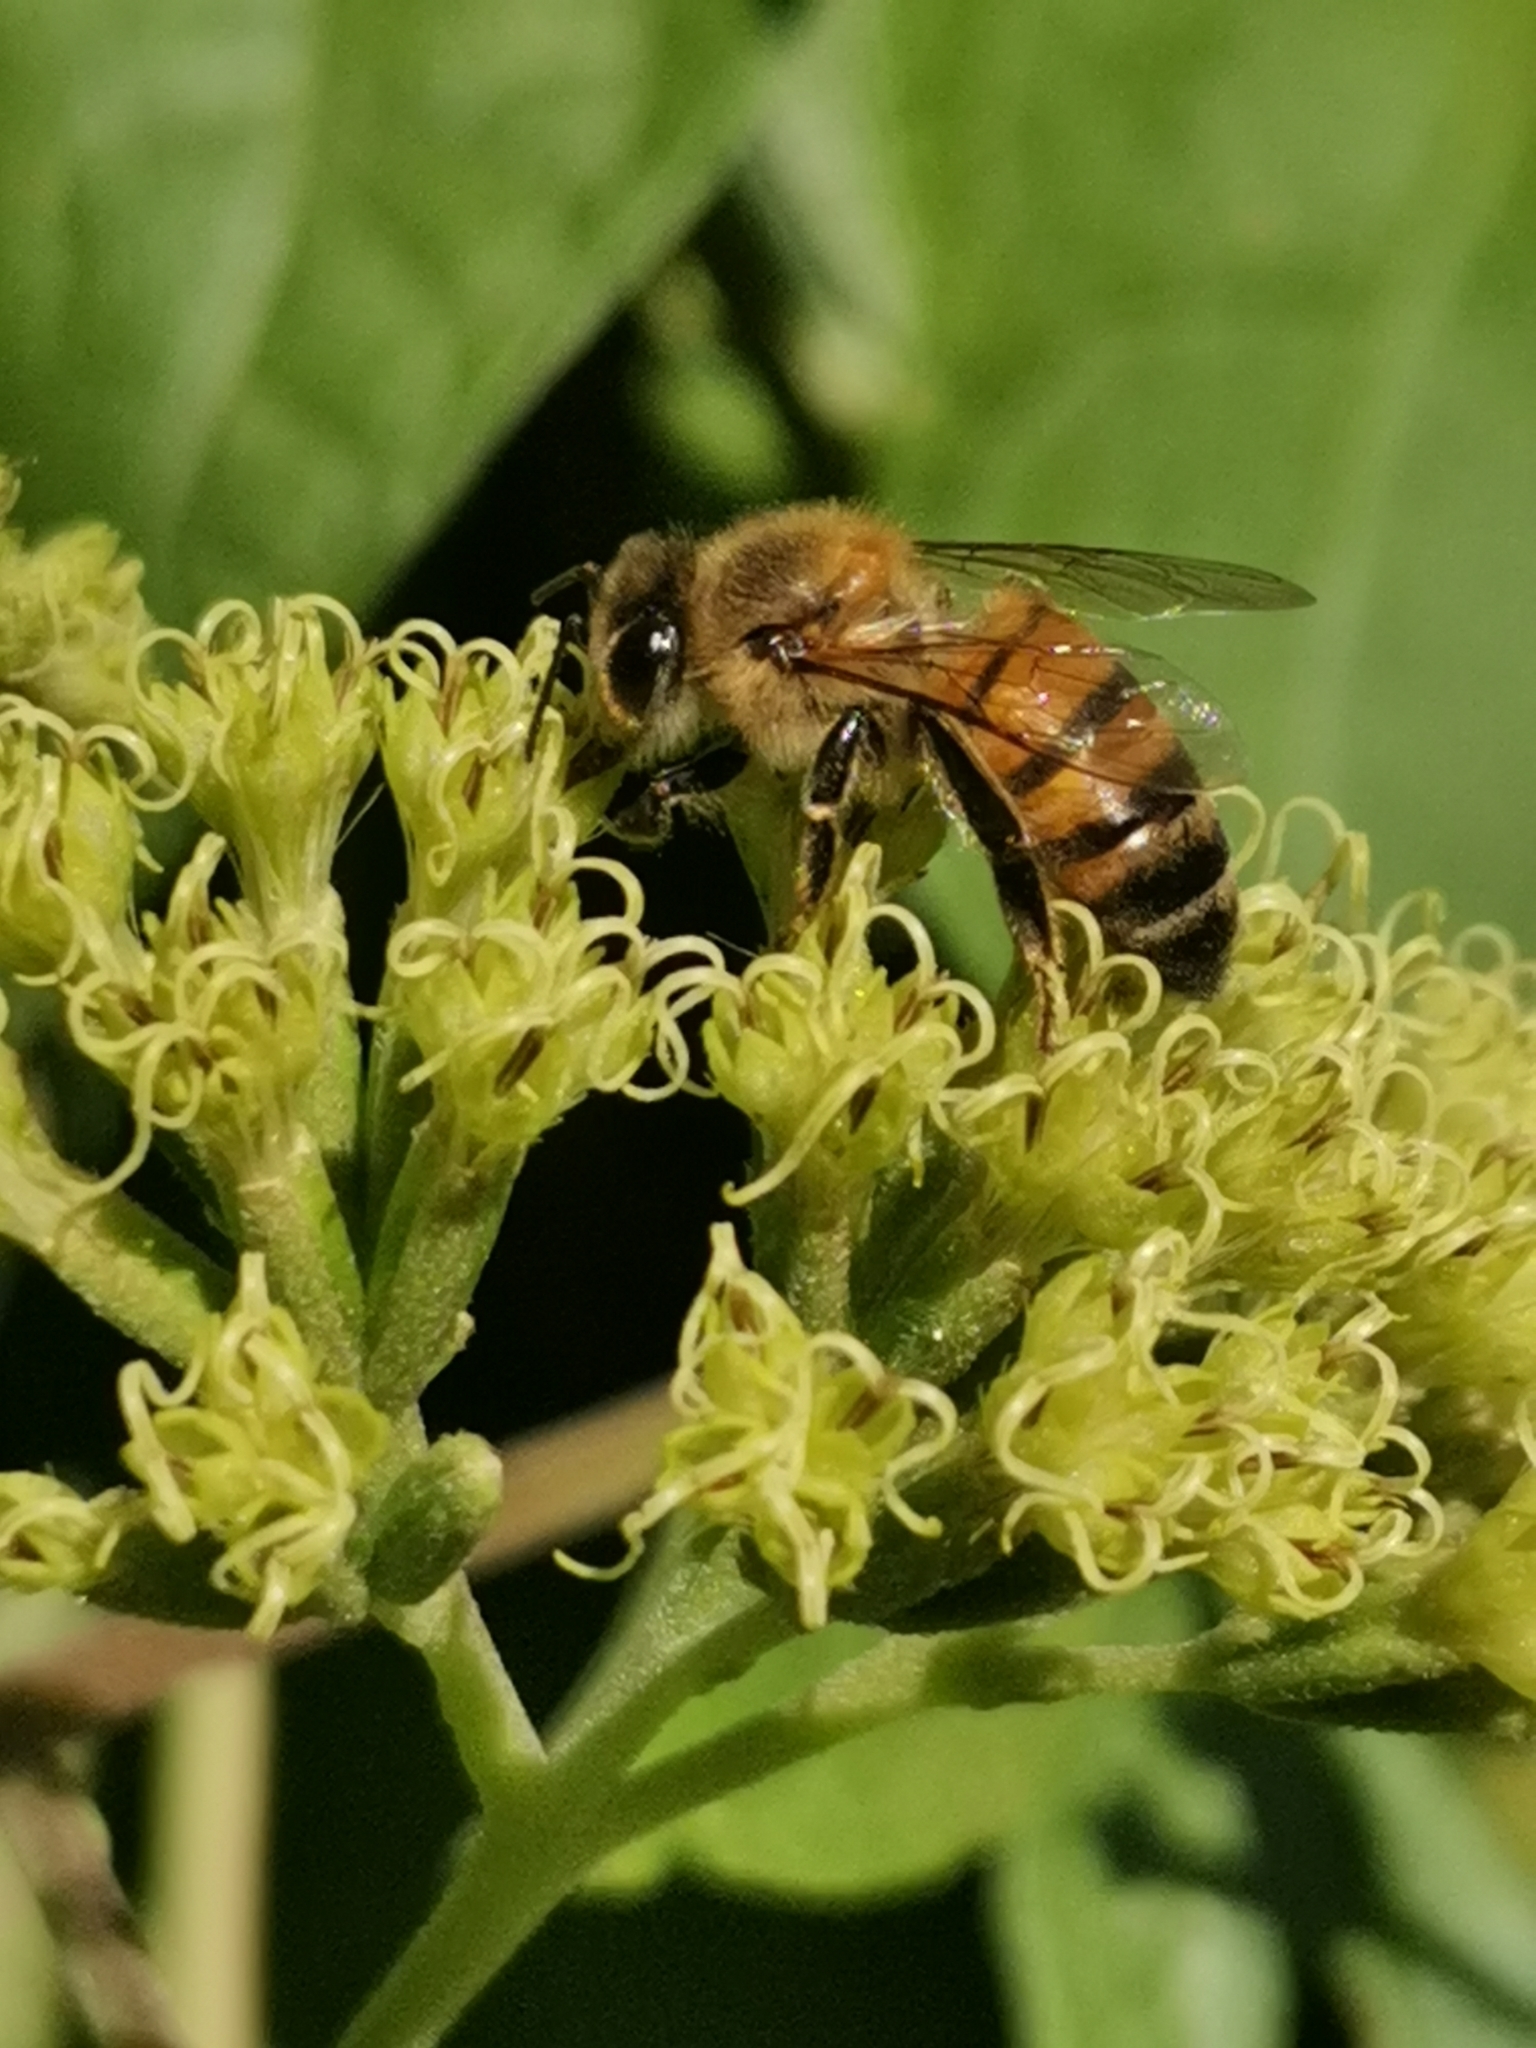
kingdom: Animalia
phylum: Arthropoda
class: Insecta
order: Hymenoptera
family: Apidae
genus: Apis
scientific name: Apis mellifera
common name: Honey bee
